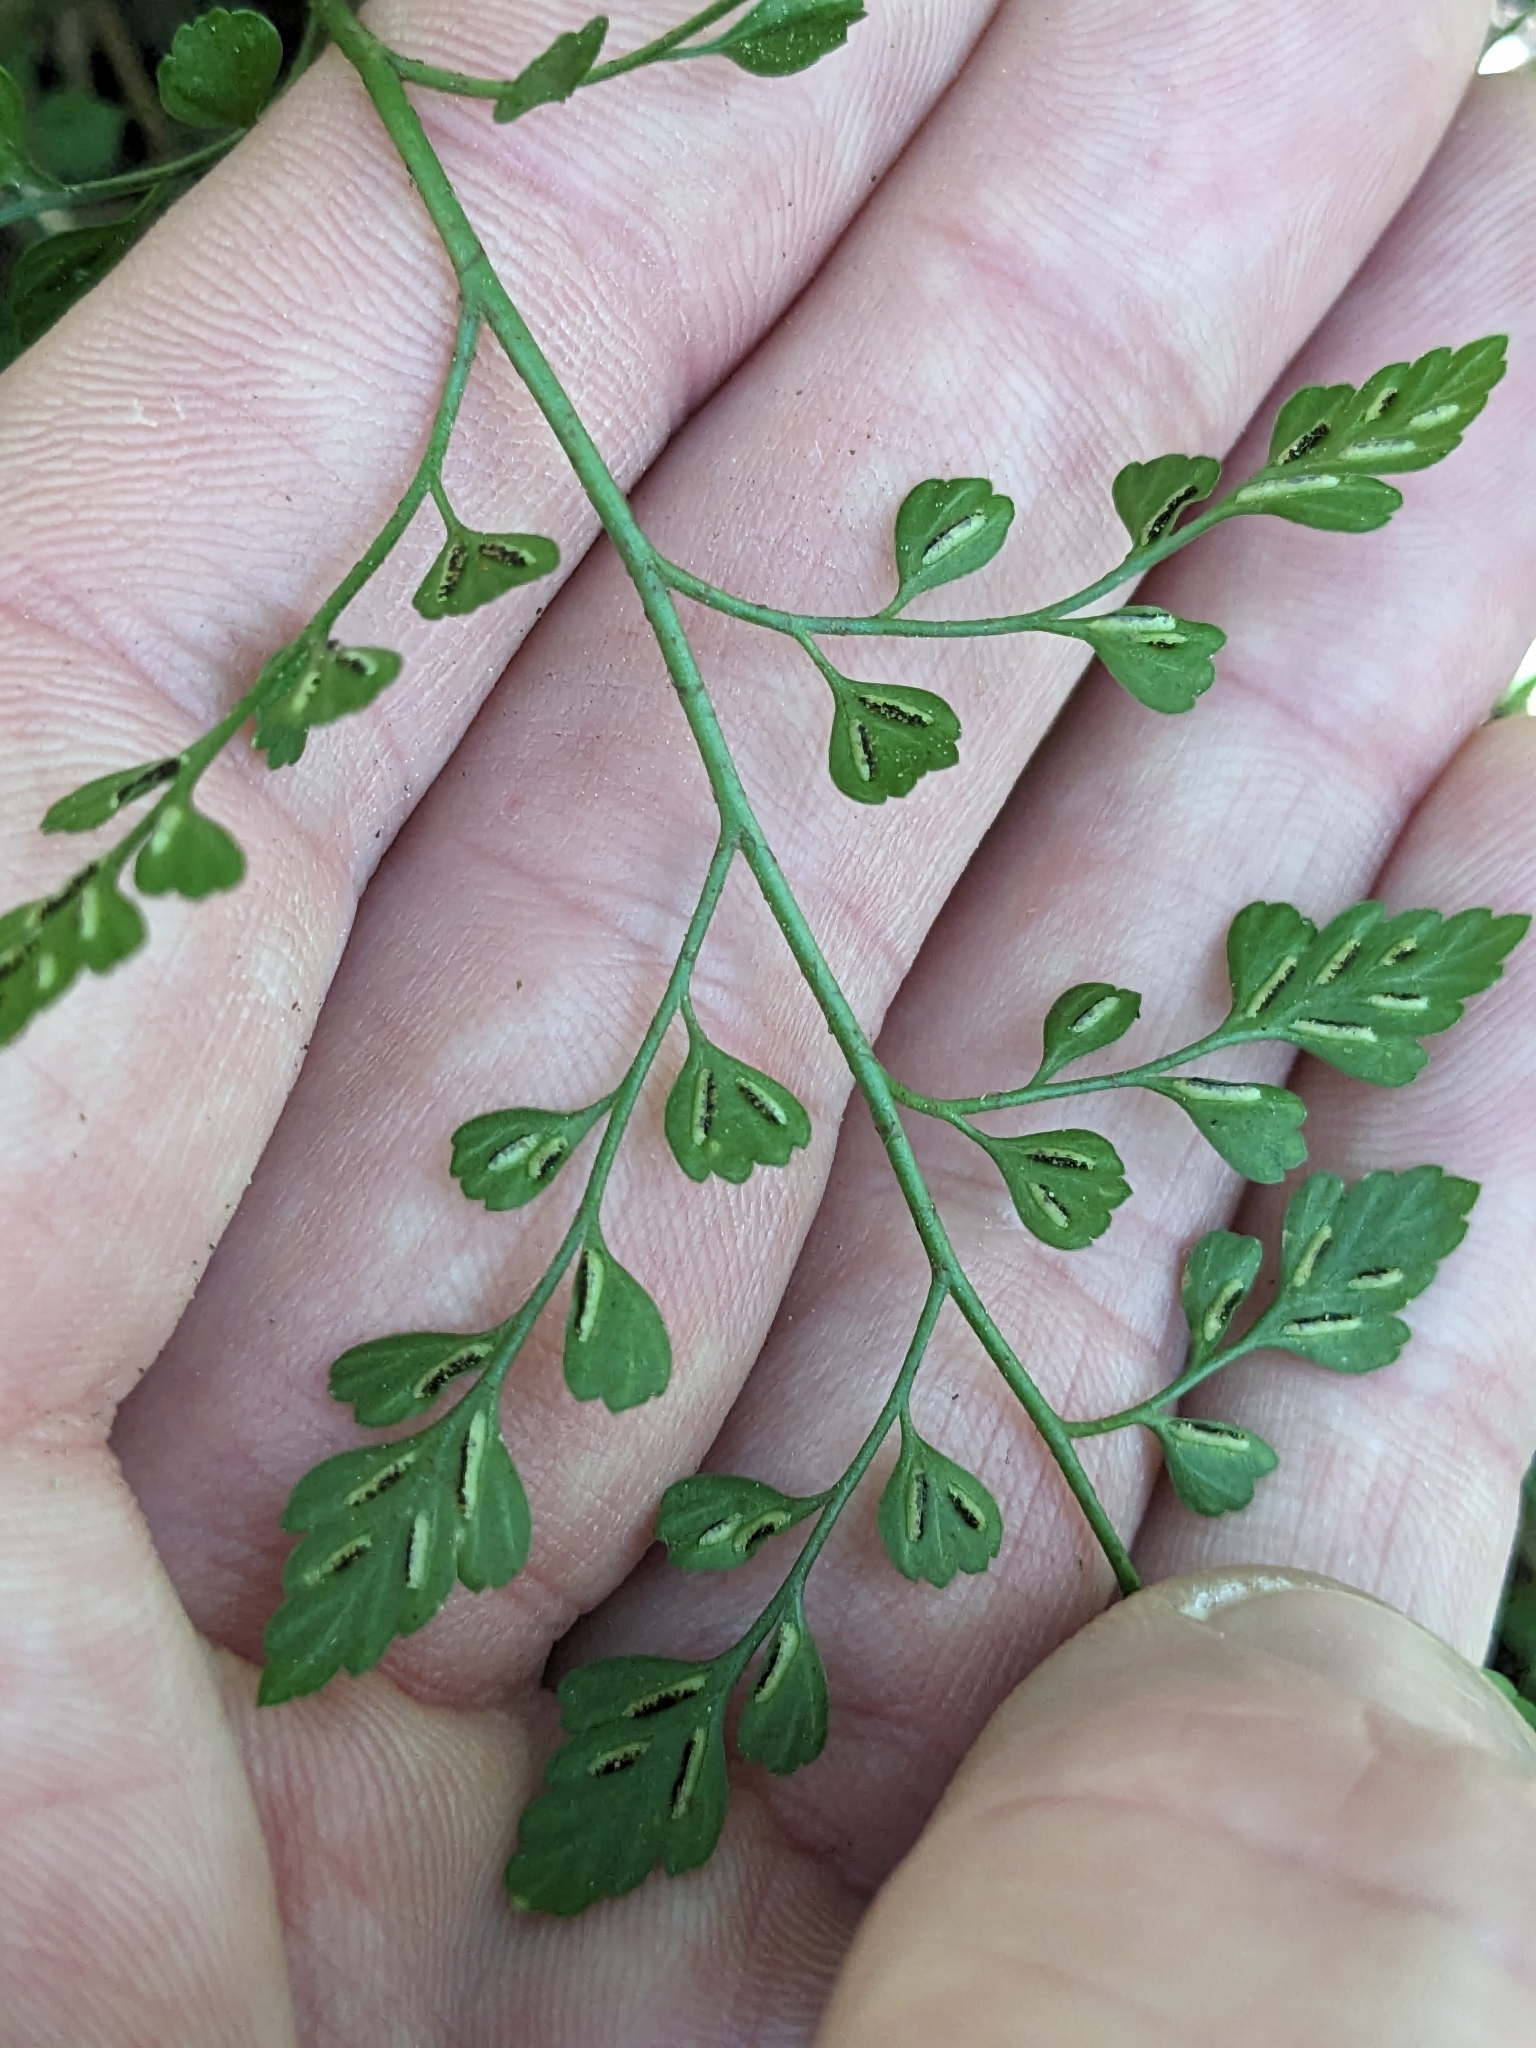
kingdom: Plantae
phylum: Tracheophyta
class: Polypodiopsida
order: Polypodiales
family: Aspleniaceae
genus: Asplenium
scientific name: Asplenium hookerianum
